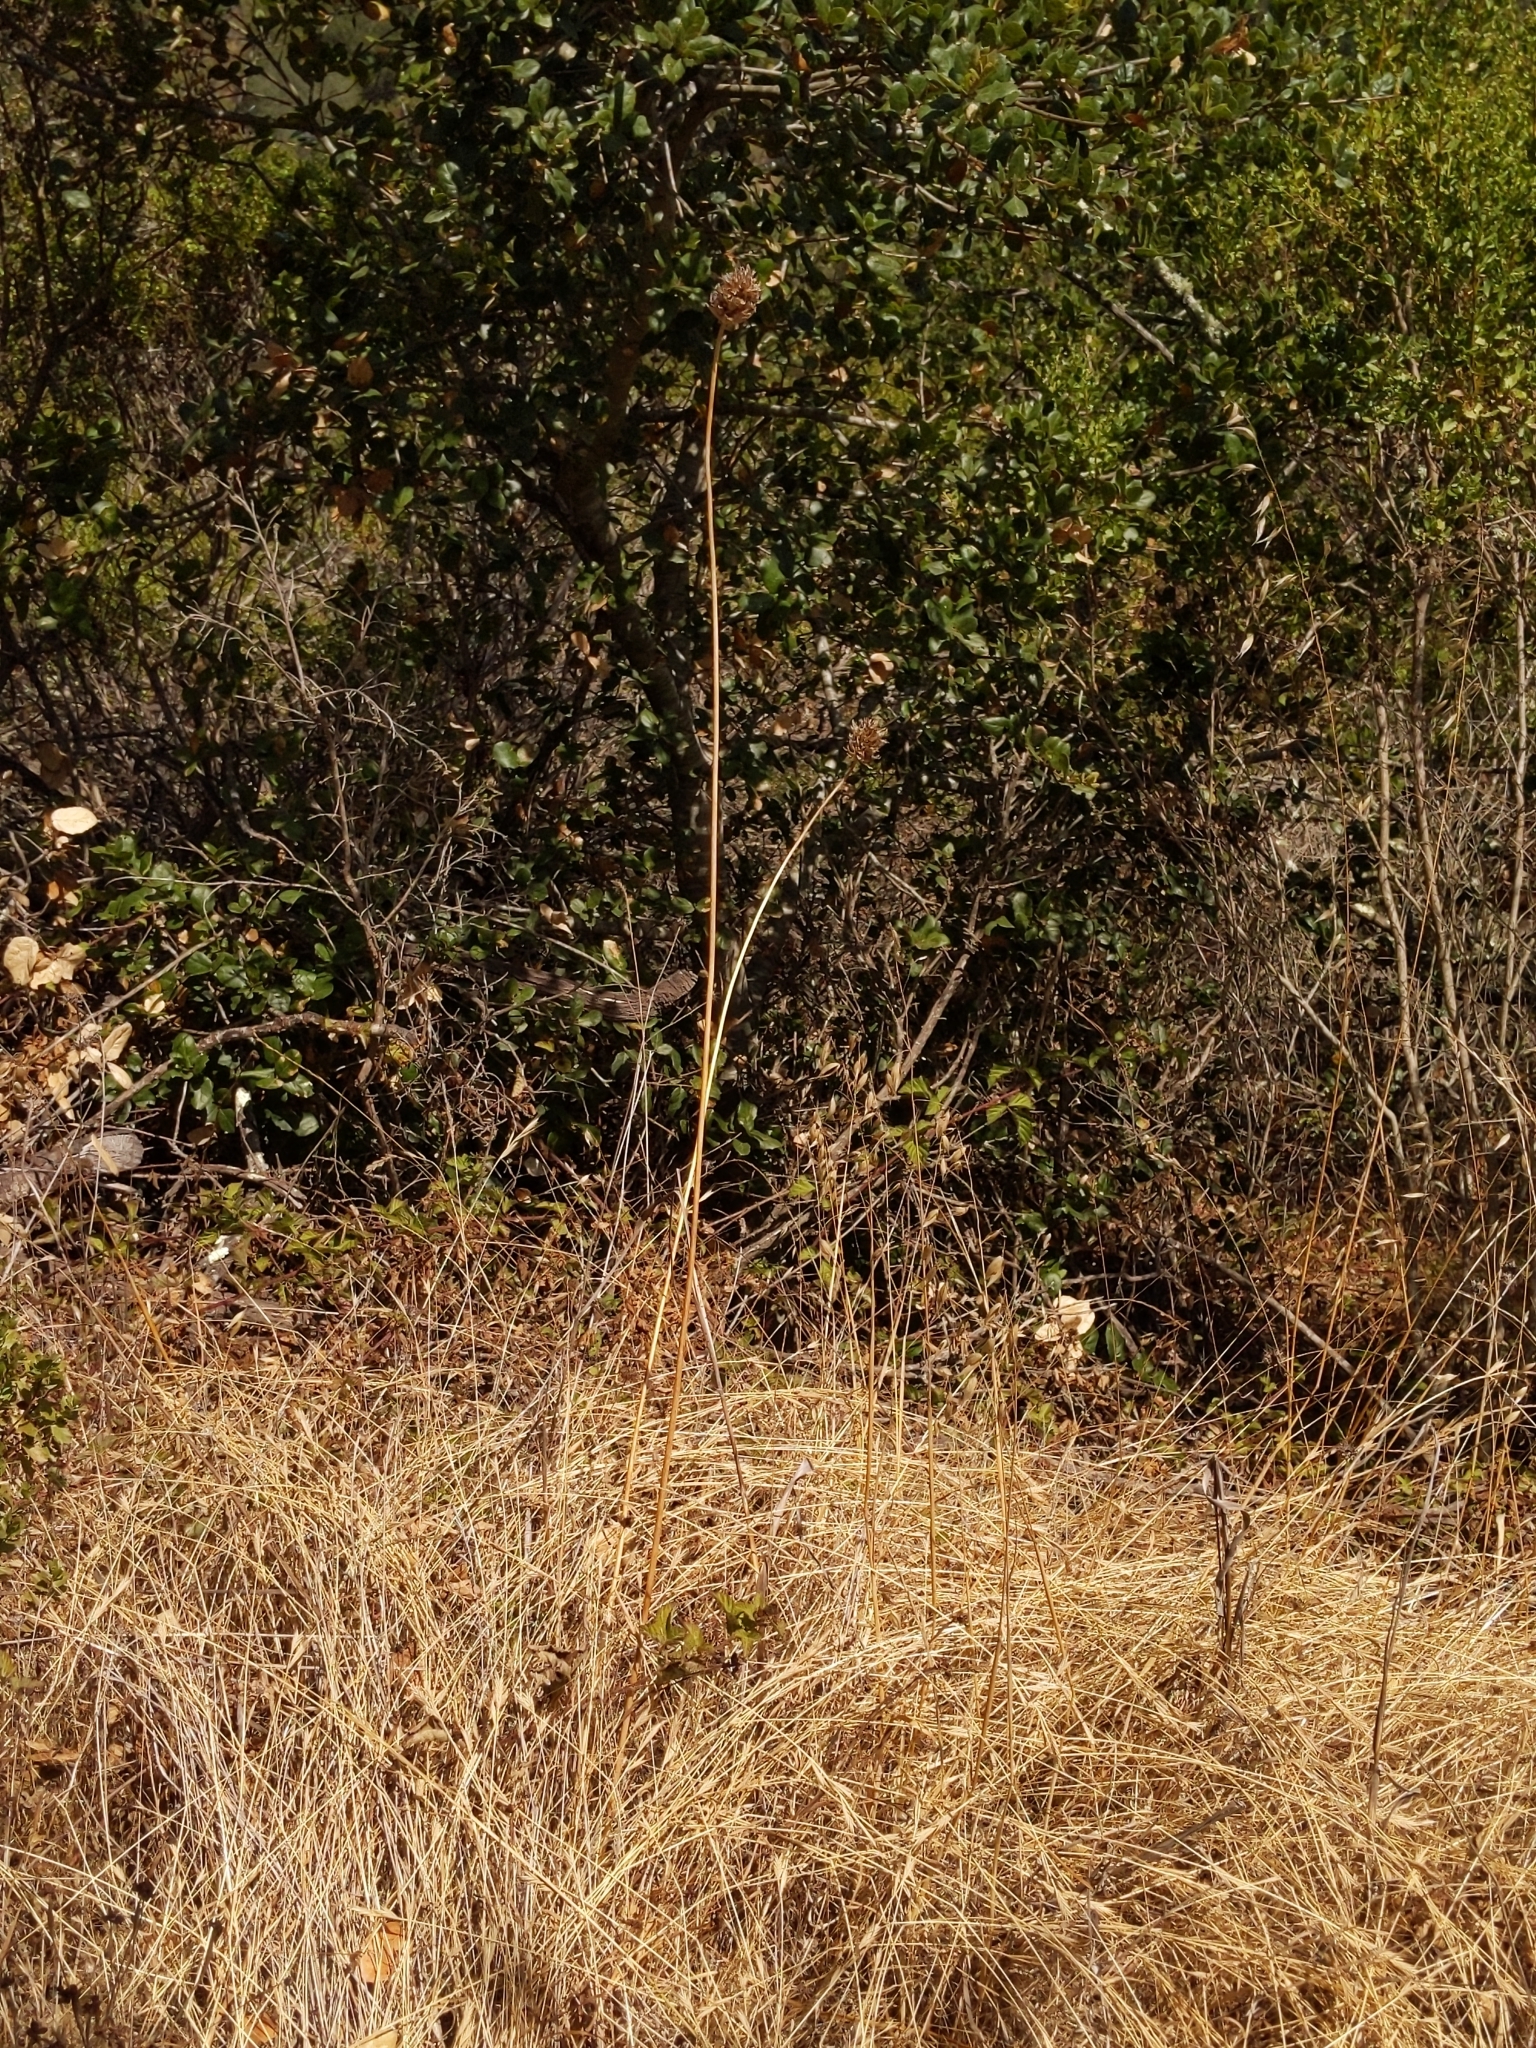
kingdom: Plantae
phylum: Tracheophyta
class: Liliopsida
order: Asparagales
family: Asparagaceae
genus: Dichelostemma
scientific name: Dichelostemma congestum
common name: Fork-tooth ookow
